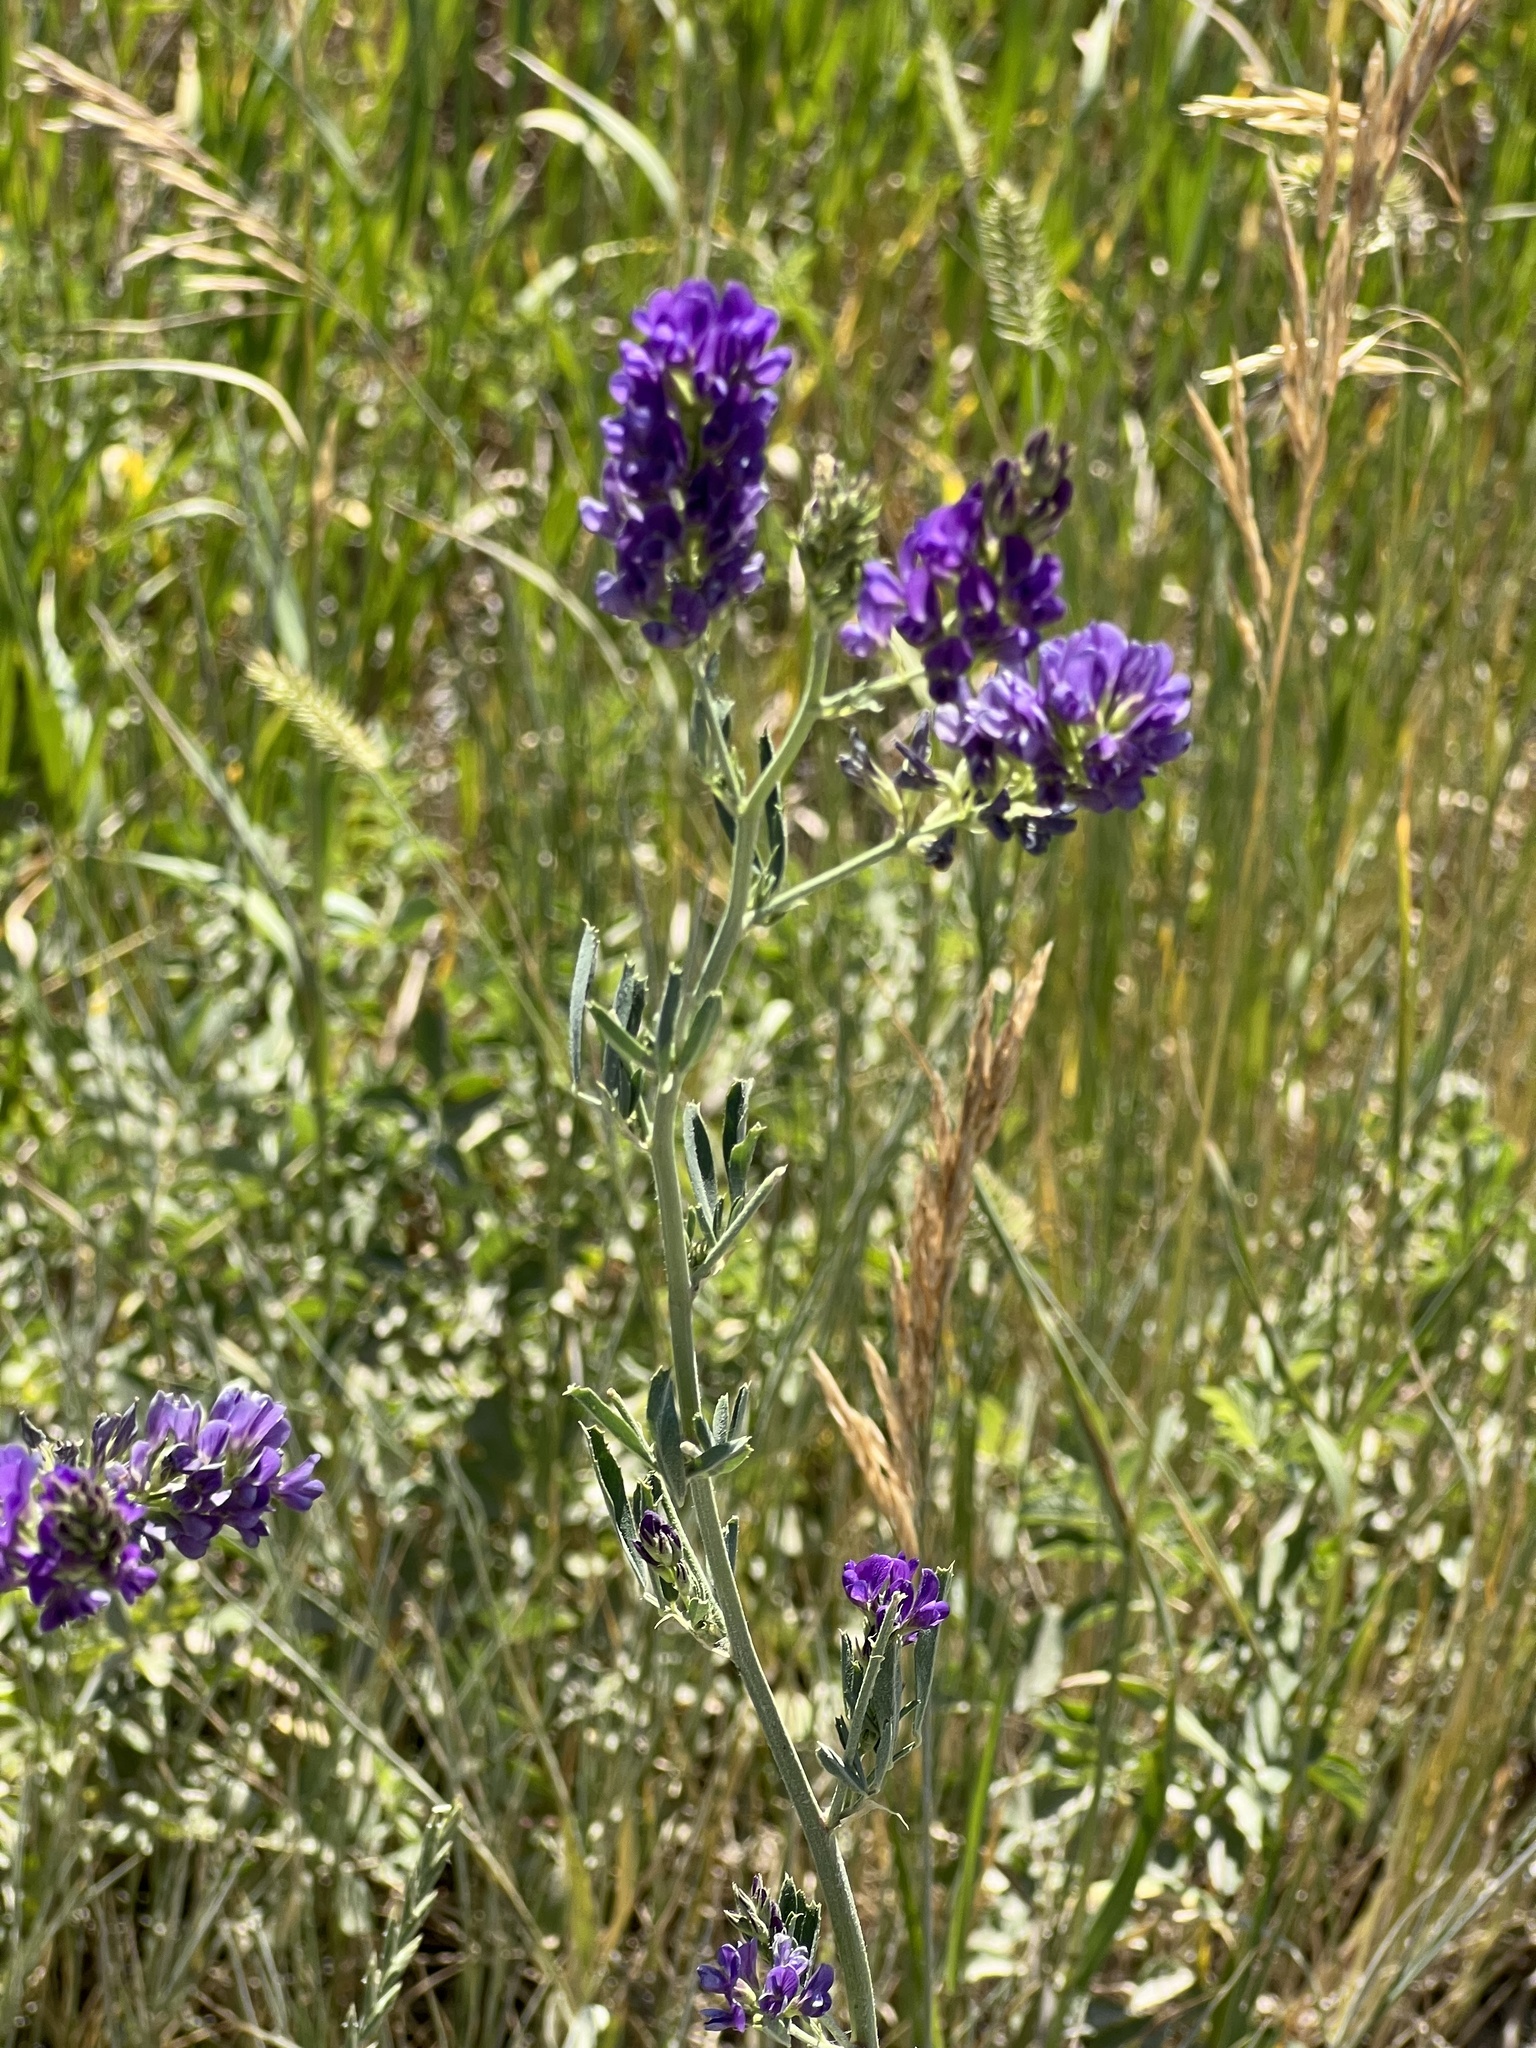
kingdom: Plantae
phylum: Tracheophyta
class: Magnoliopsida
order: Fabales
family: Fabaceae
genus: Medicago
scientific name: Medicago sativa
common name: Alfalfa
